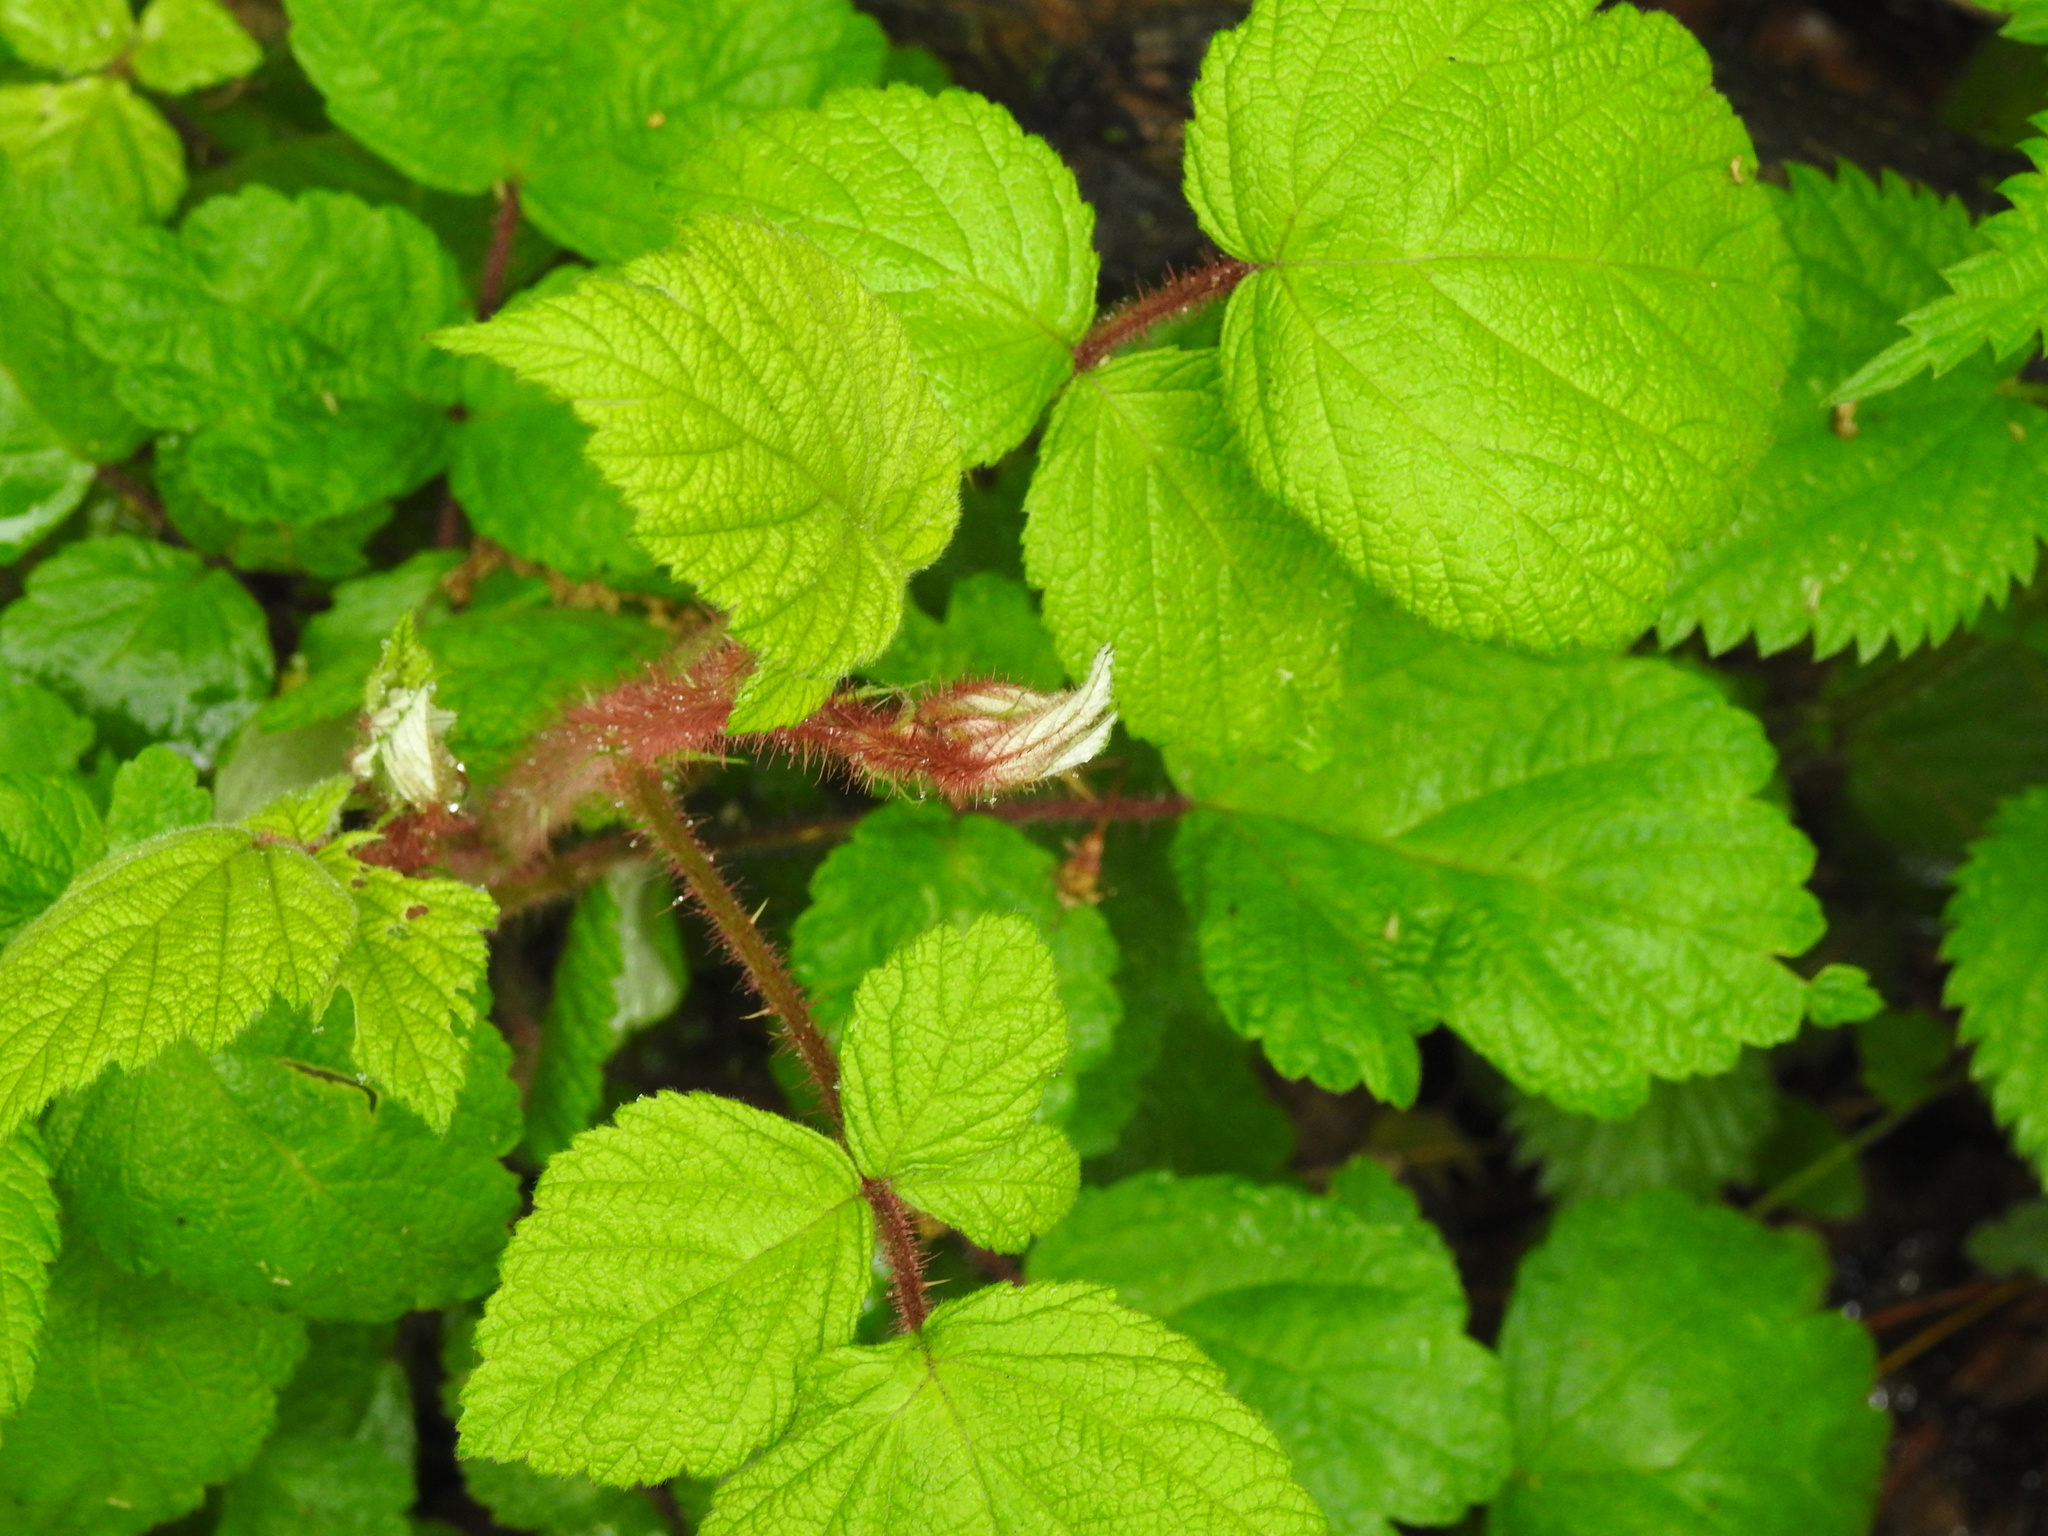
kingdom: Plantae
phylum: Tracheophyta
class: Magnoliopsida
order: Rosales
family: Rosaceae
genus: Rubus
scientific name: Rubus phoenicolasius
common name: Japanese wineberry
